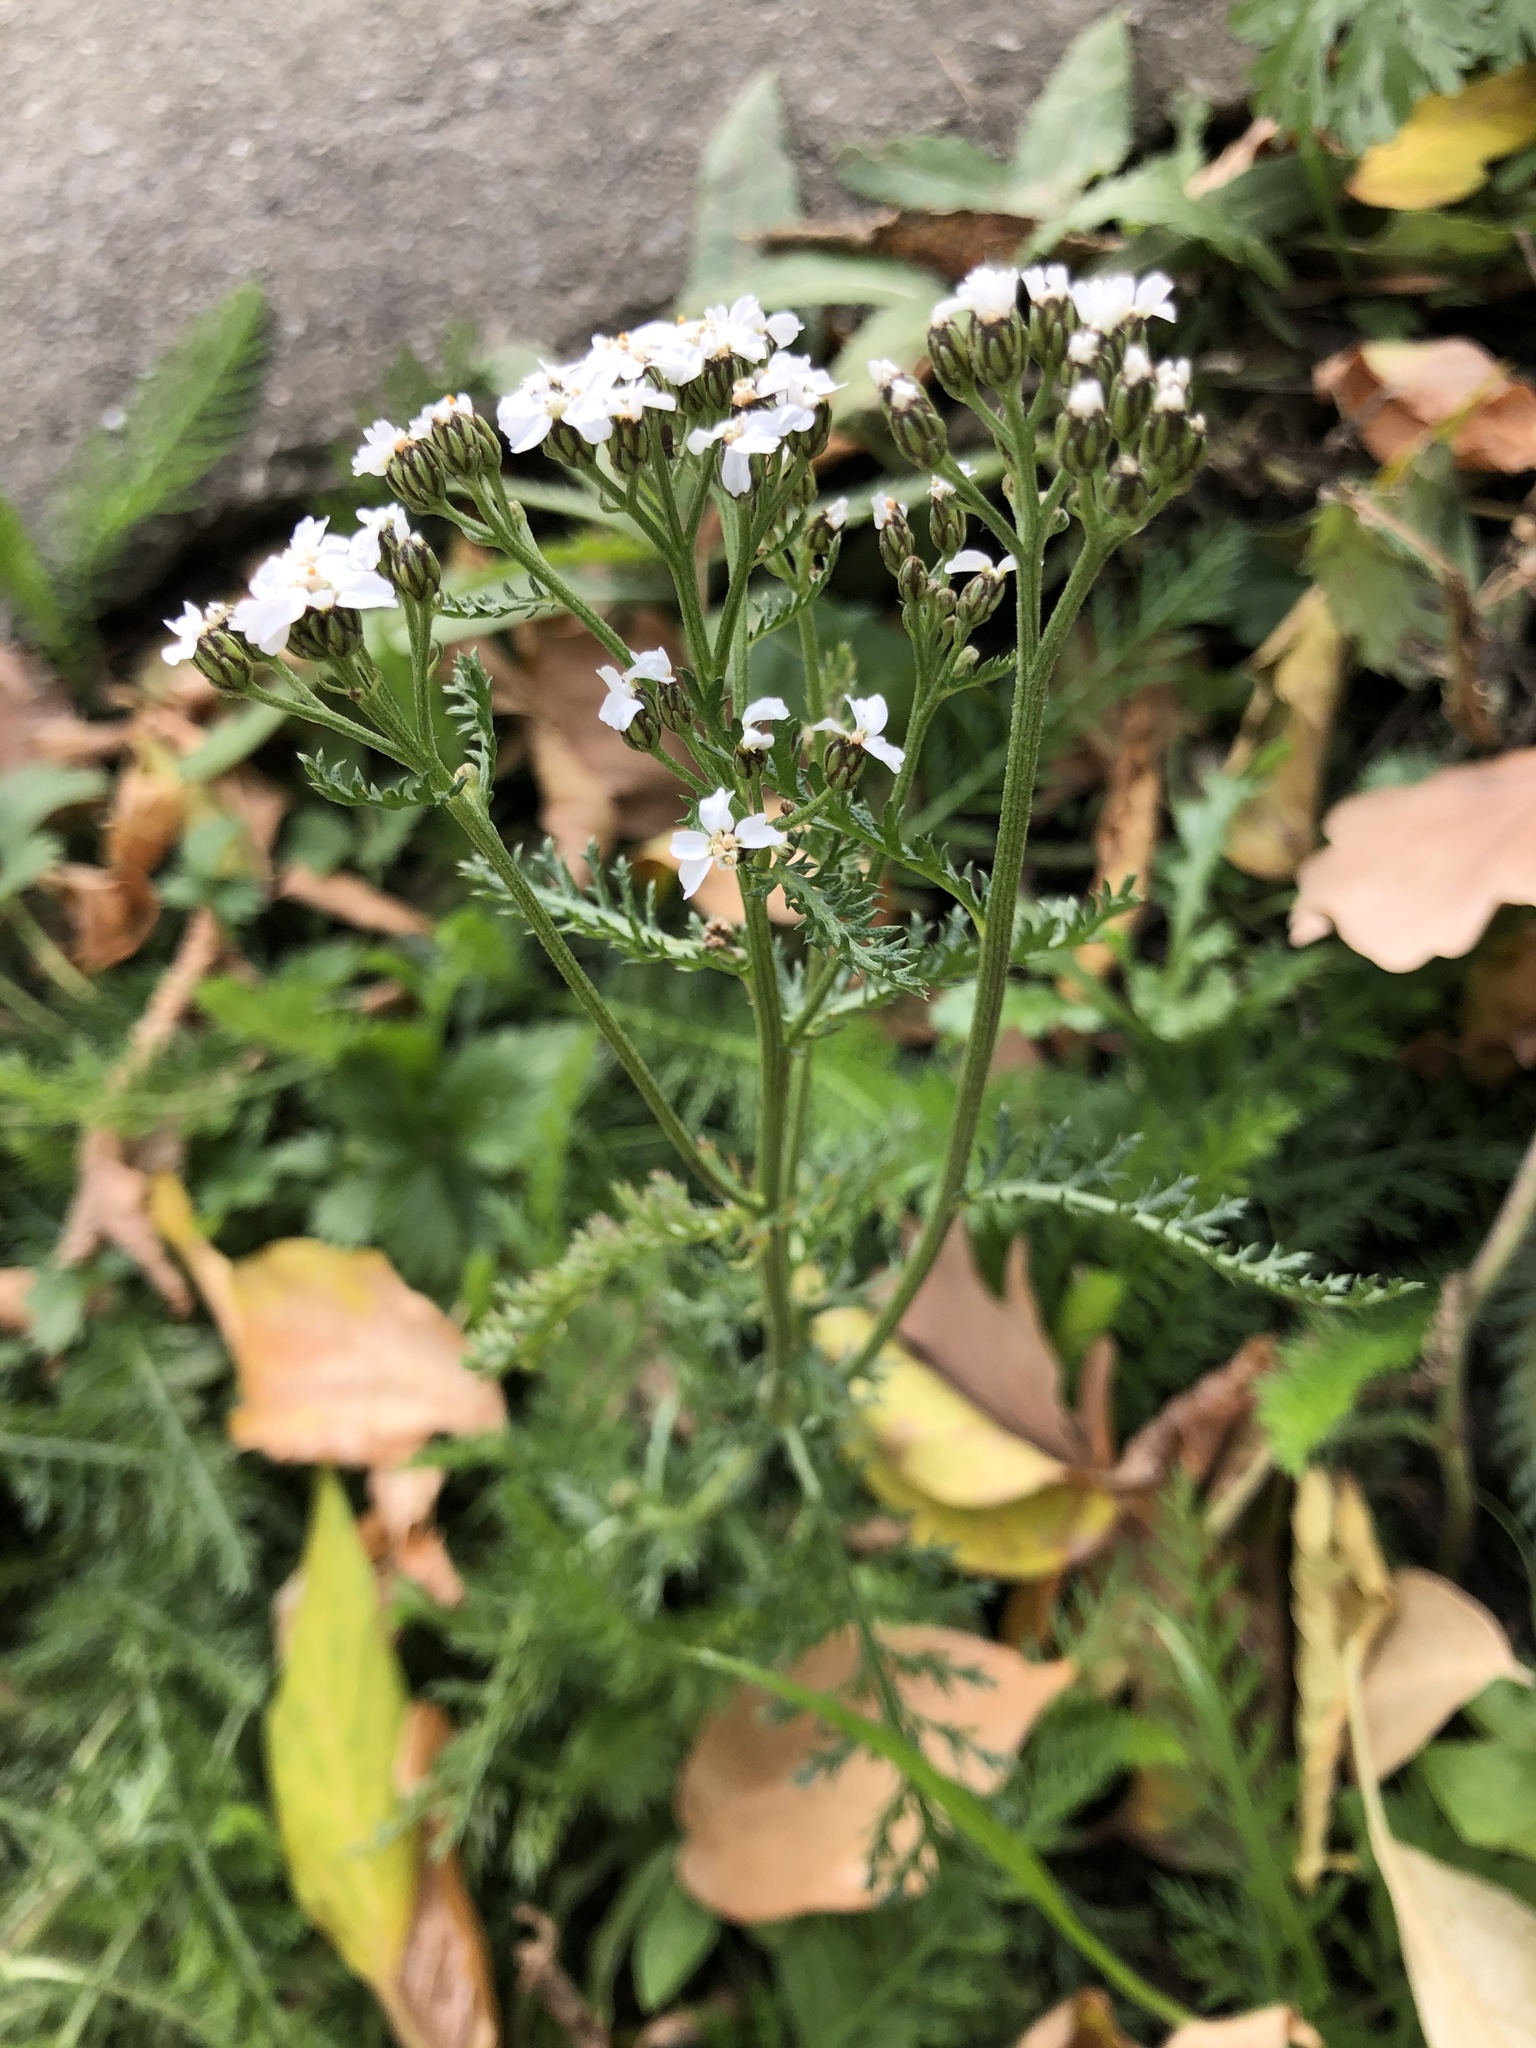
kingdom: Plantae
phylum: Tracheophyta
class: Magnoliopsida
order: Asterales
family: Asteraceae
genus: Achillea
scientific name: Achillea millefolium
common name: Yarrow
